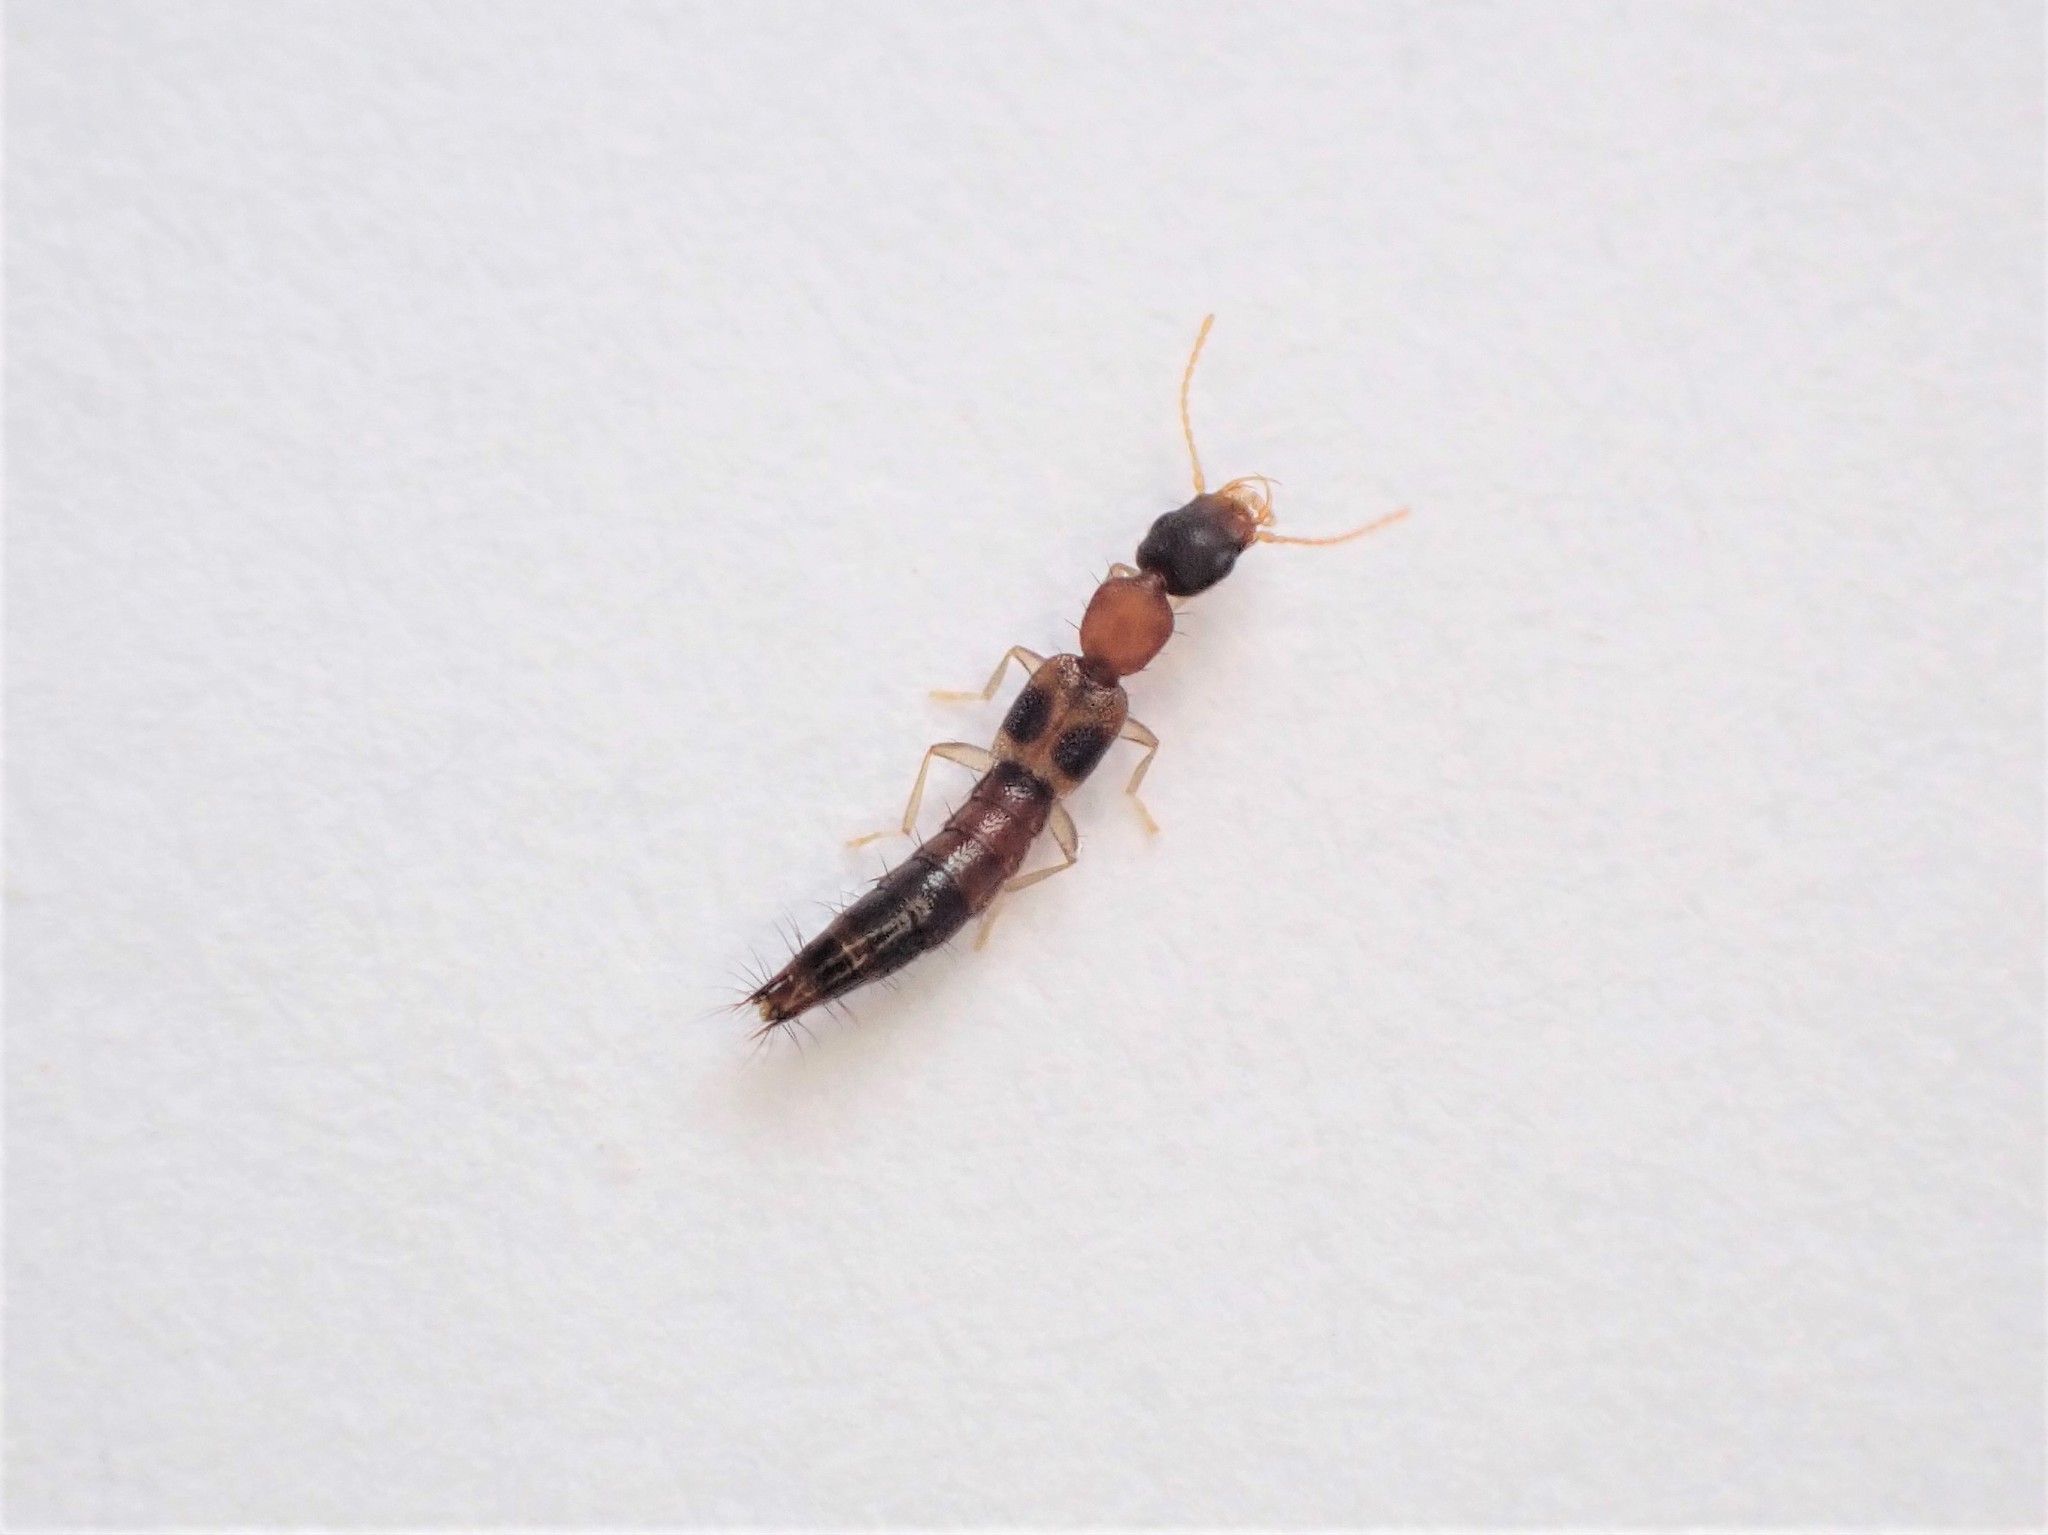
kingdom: Animalia
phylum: Arthropoda
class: Insecta
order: Coleoptera
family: Staphylinidae
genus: Astenus
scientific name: Astenus guttulus
